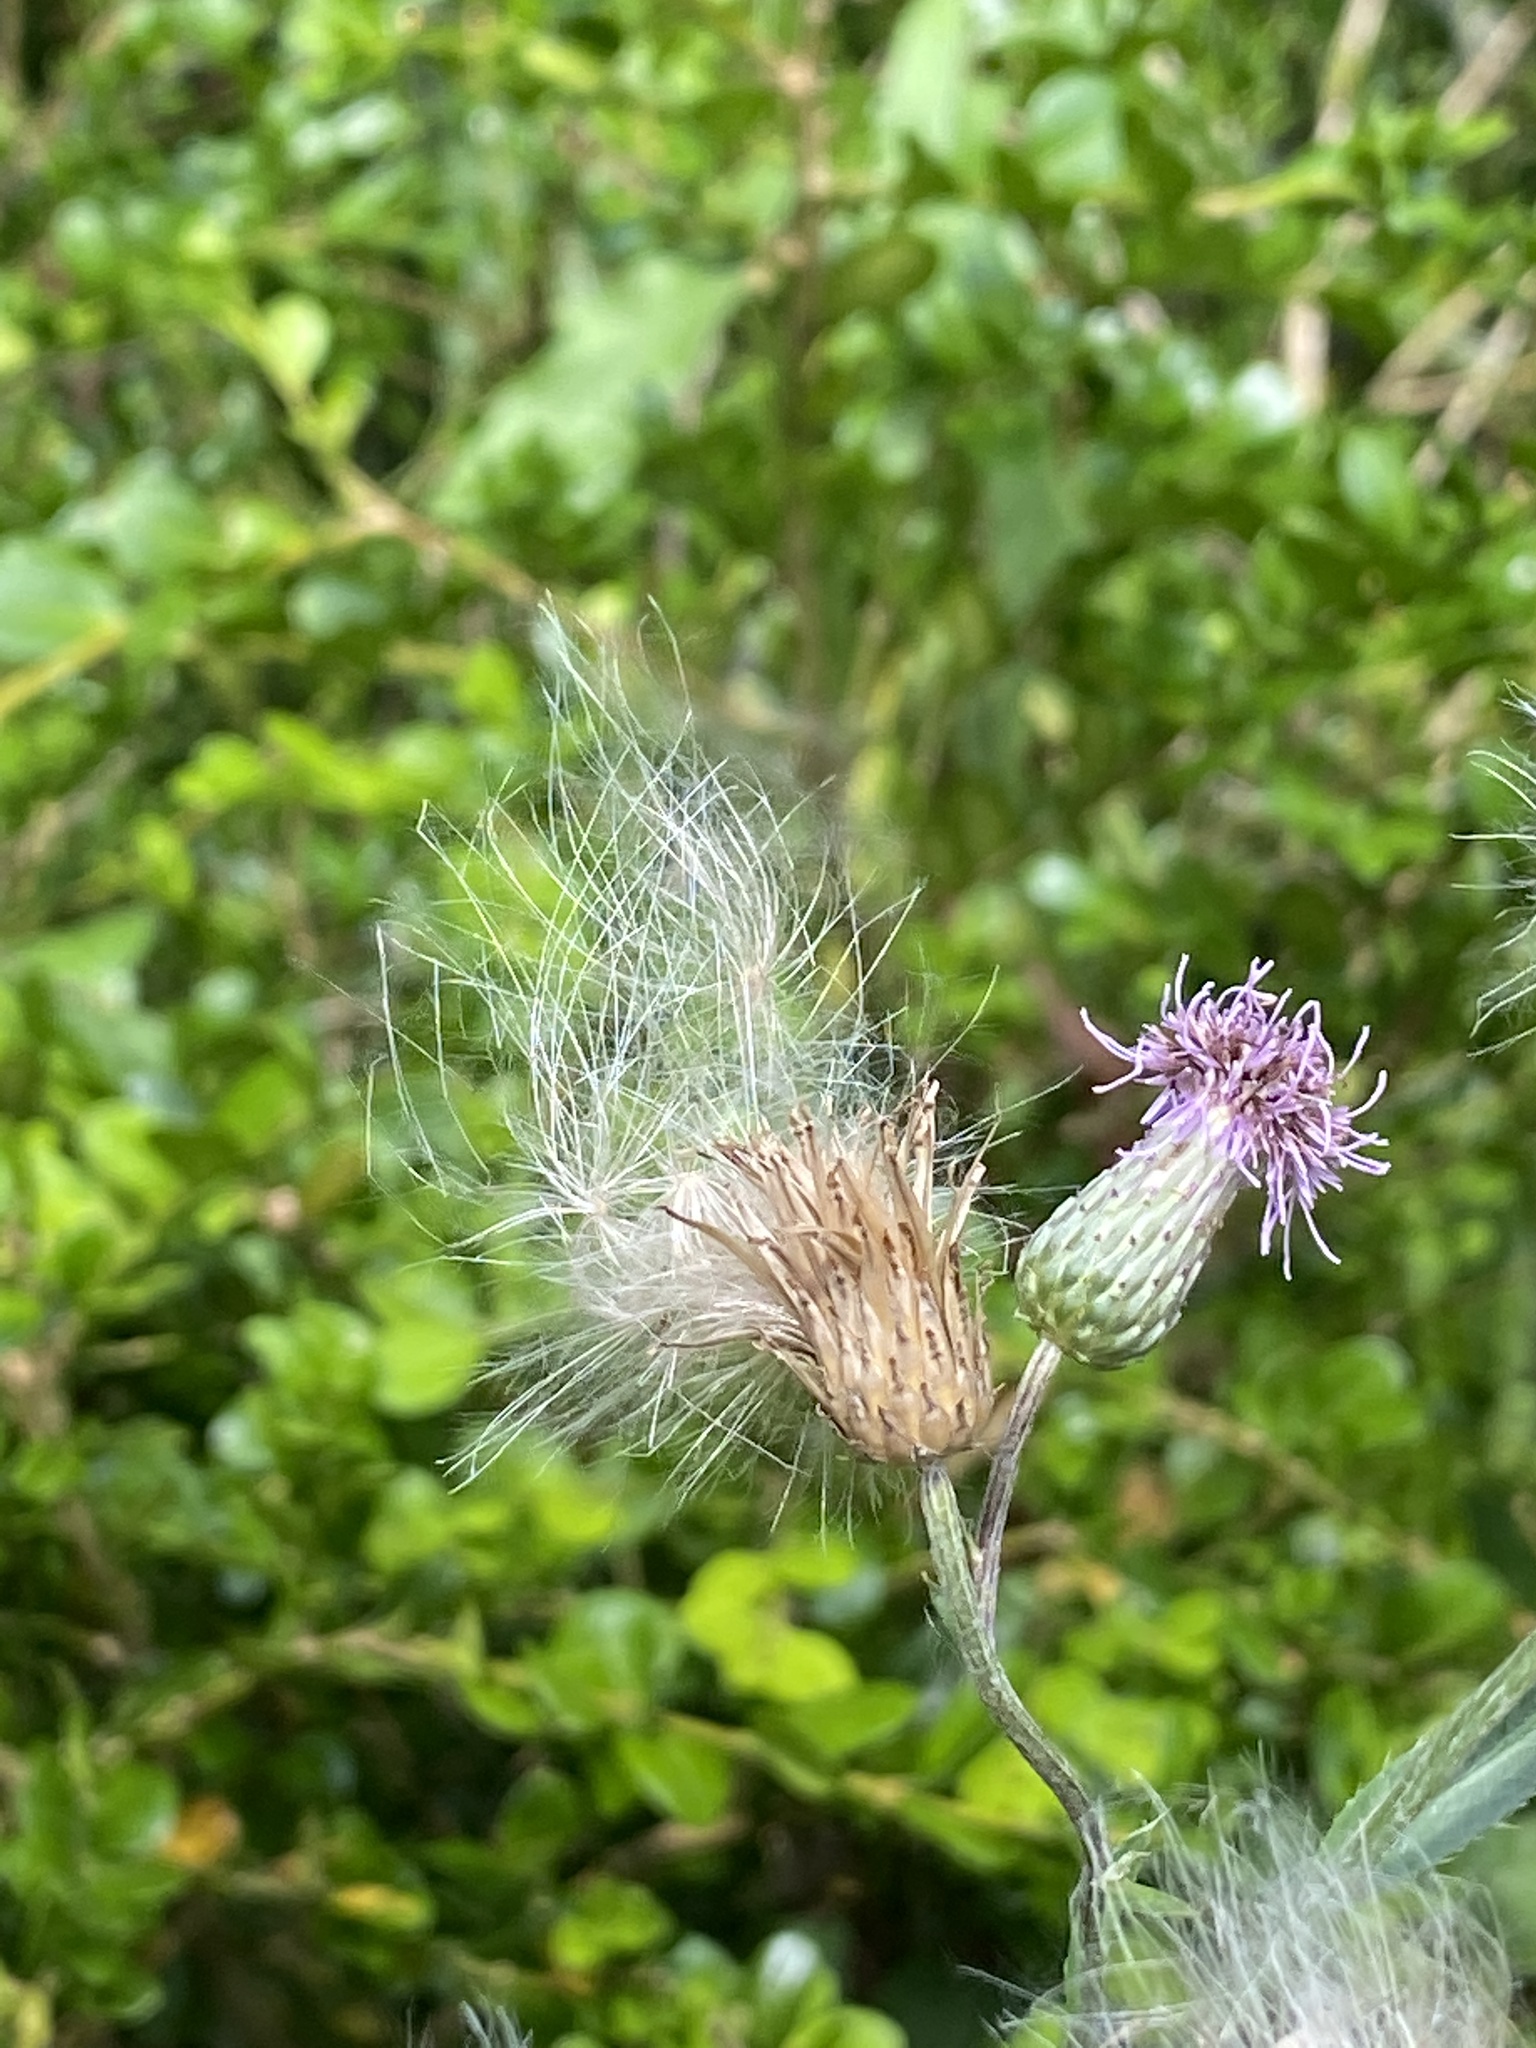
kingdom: Plantae
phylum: Tracheophyta
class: Magnoliopsida
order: Asterales
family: Asteraceae
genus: Cirsium
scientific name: Cirsium arvense
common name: Creeping thistle
